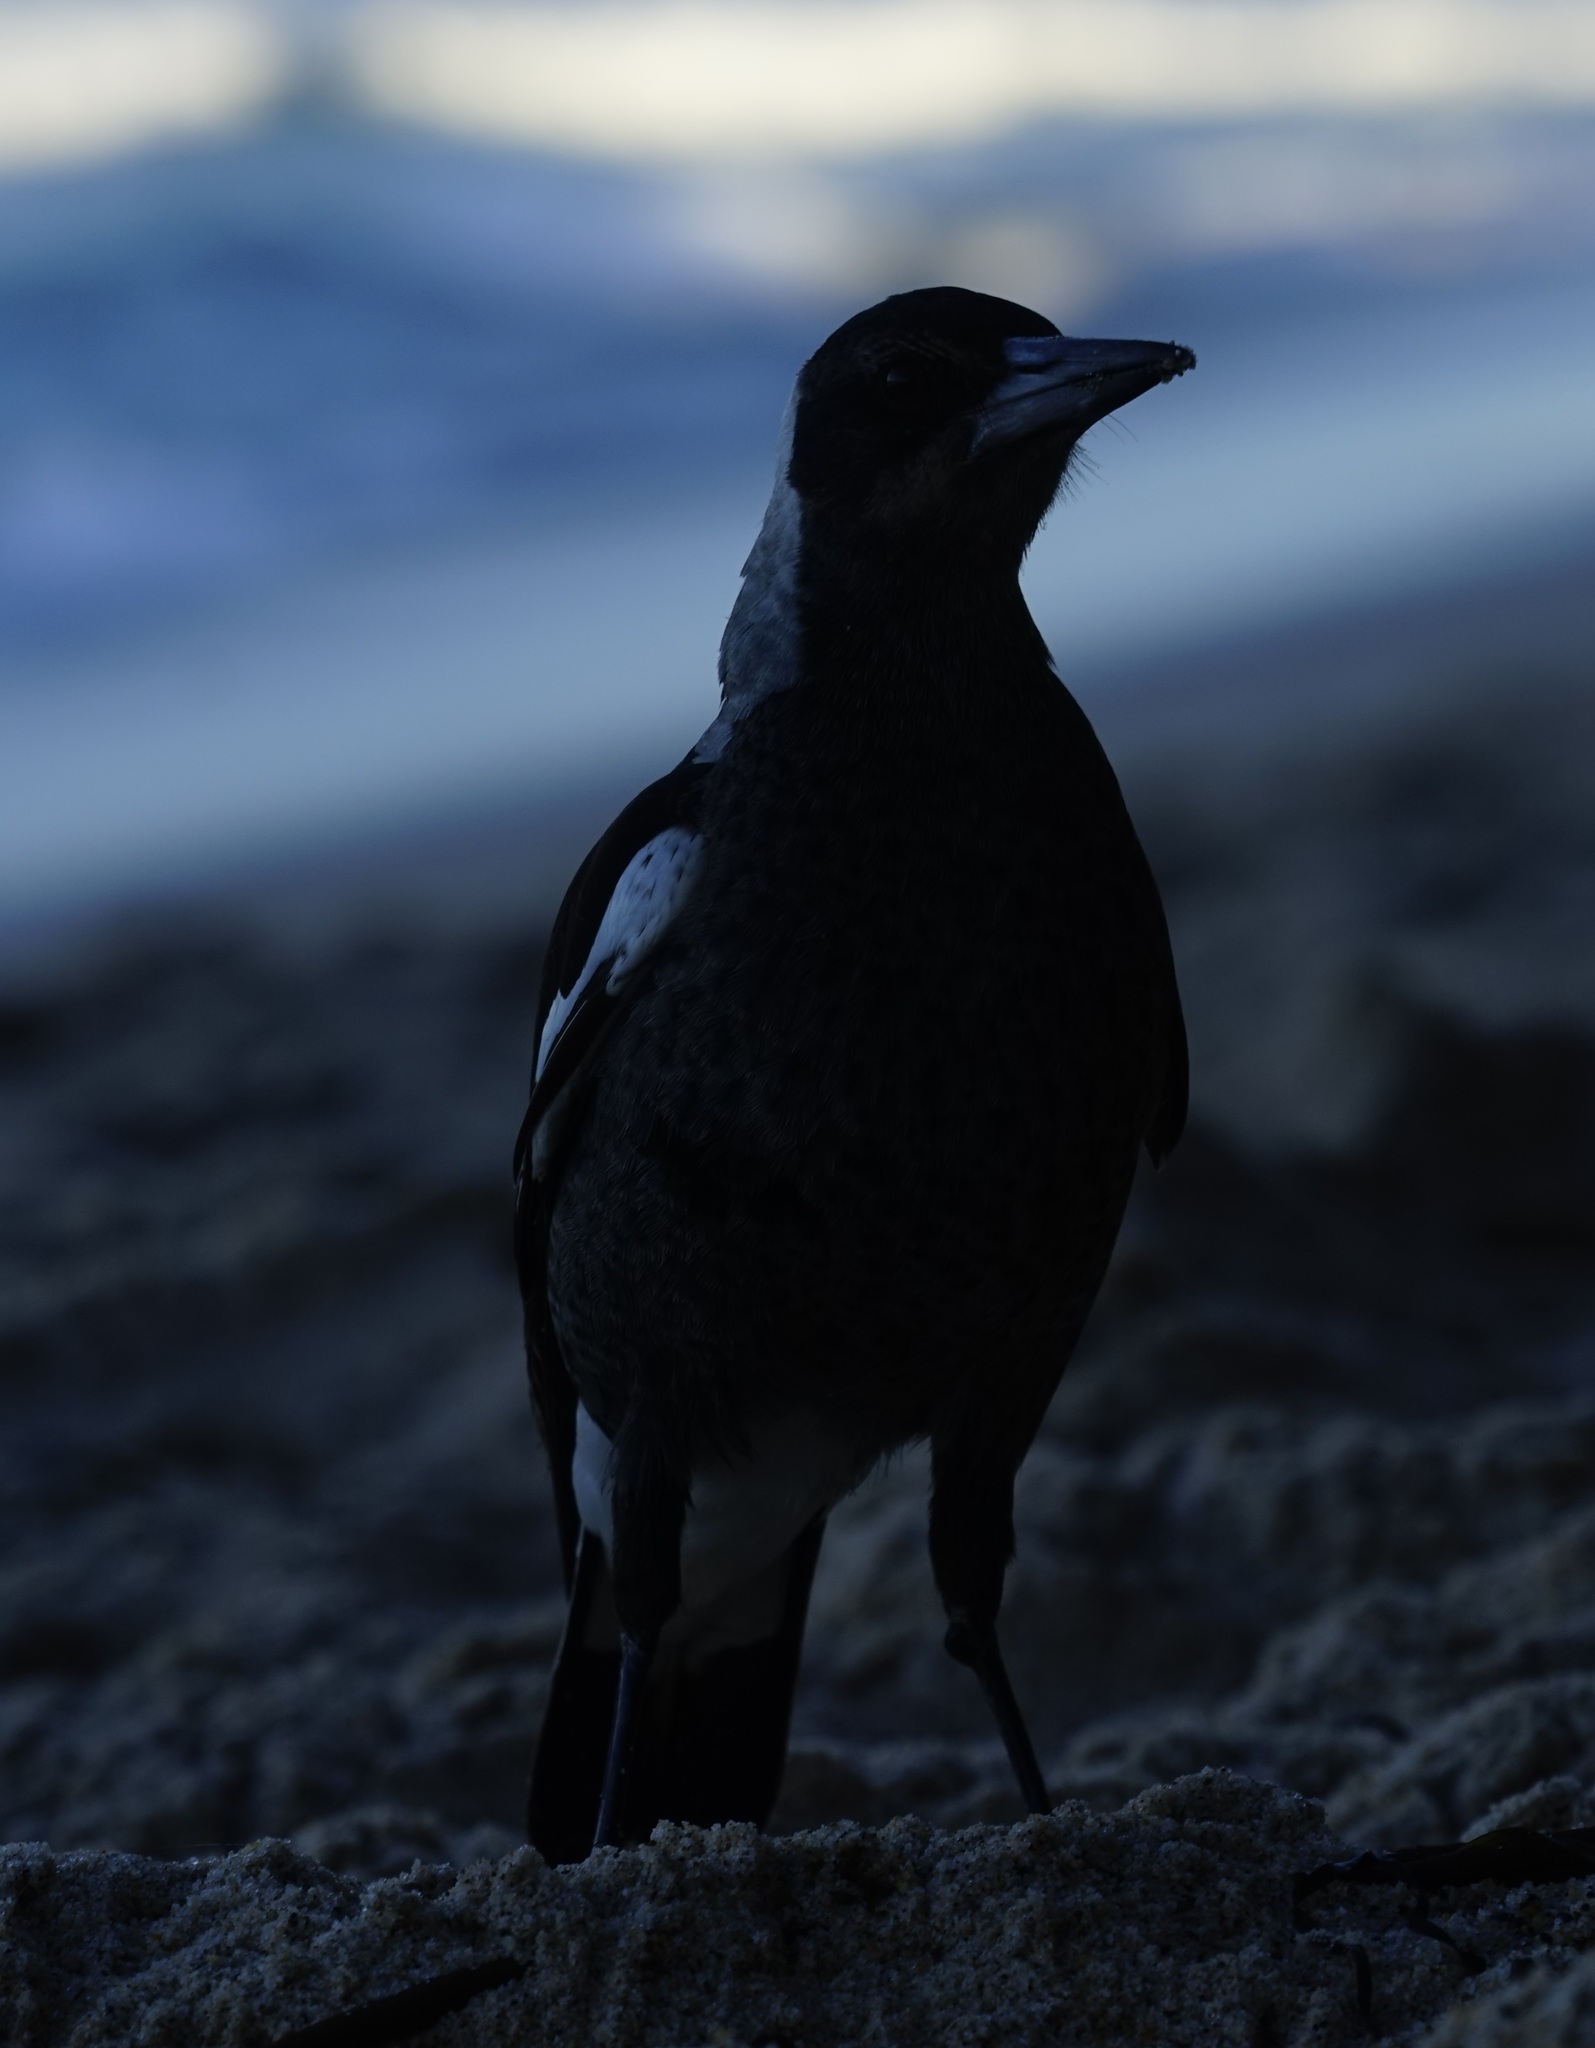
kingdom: Animalia
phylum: Chordata
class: Aves
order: Passeriformes
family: Cracticidae
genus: Gymnorhina
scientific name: Gymnorhina tibicen
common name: Australian magpie
